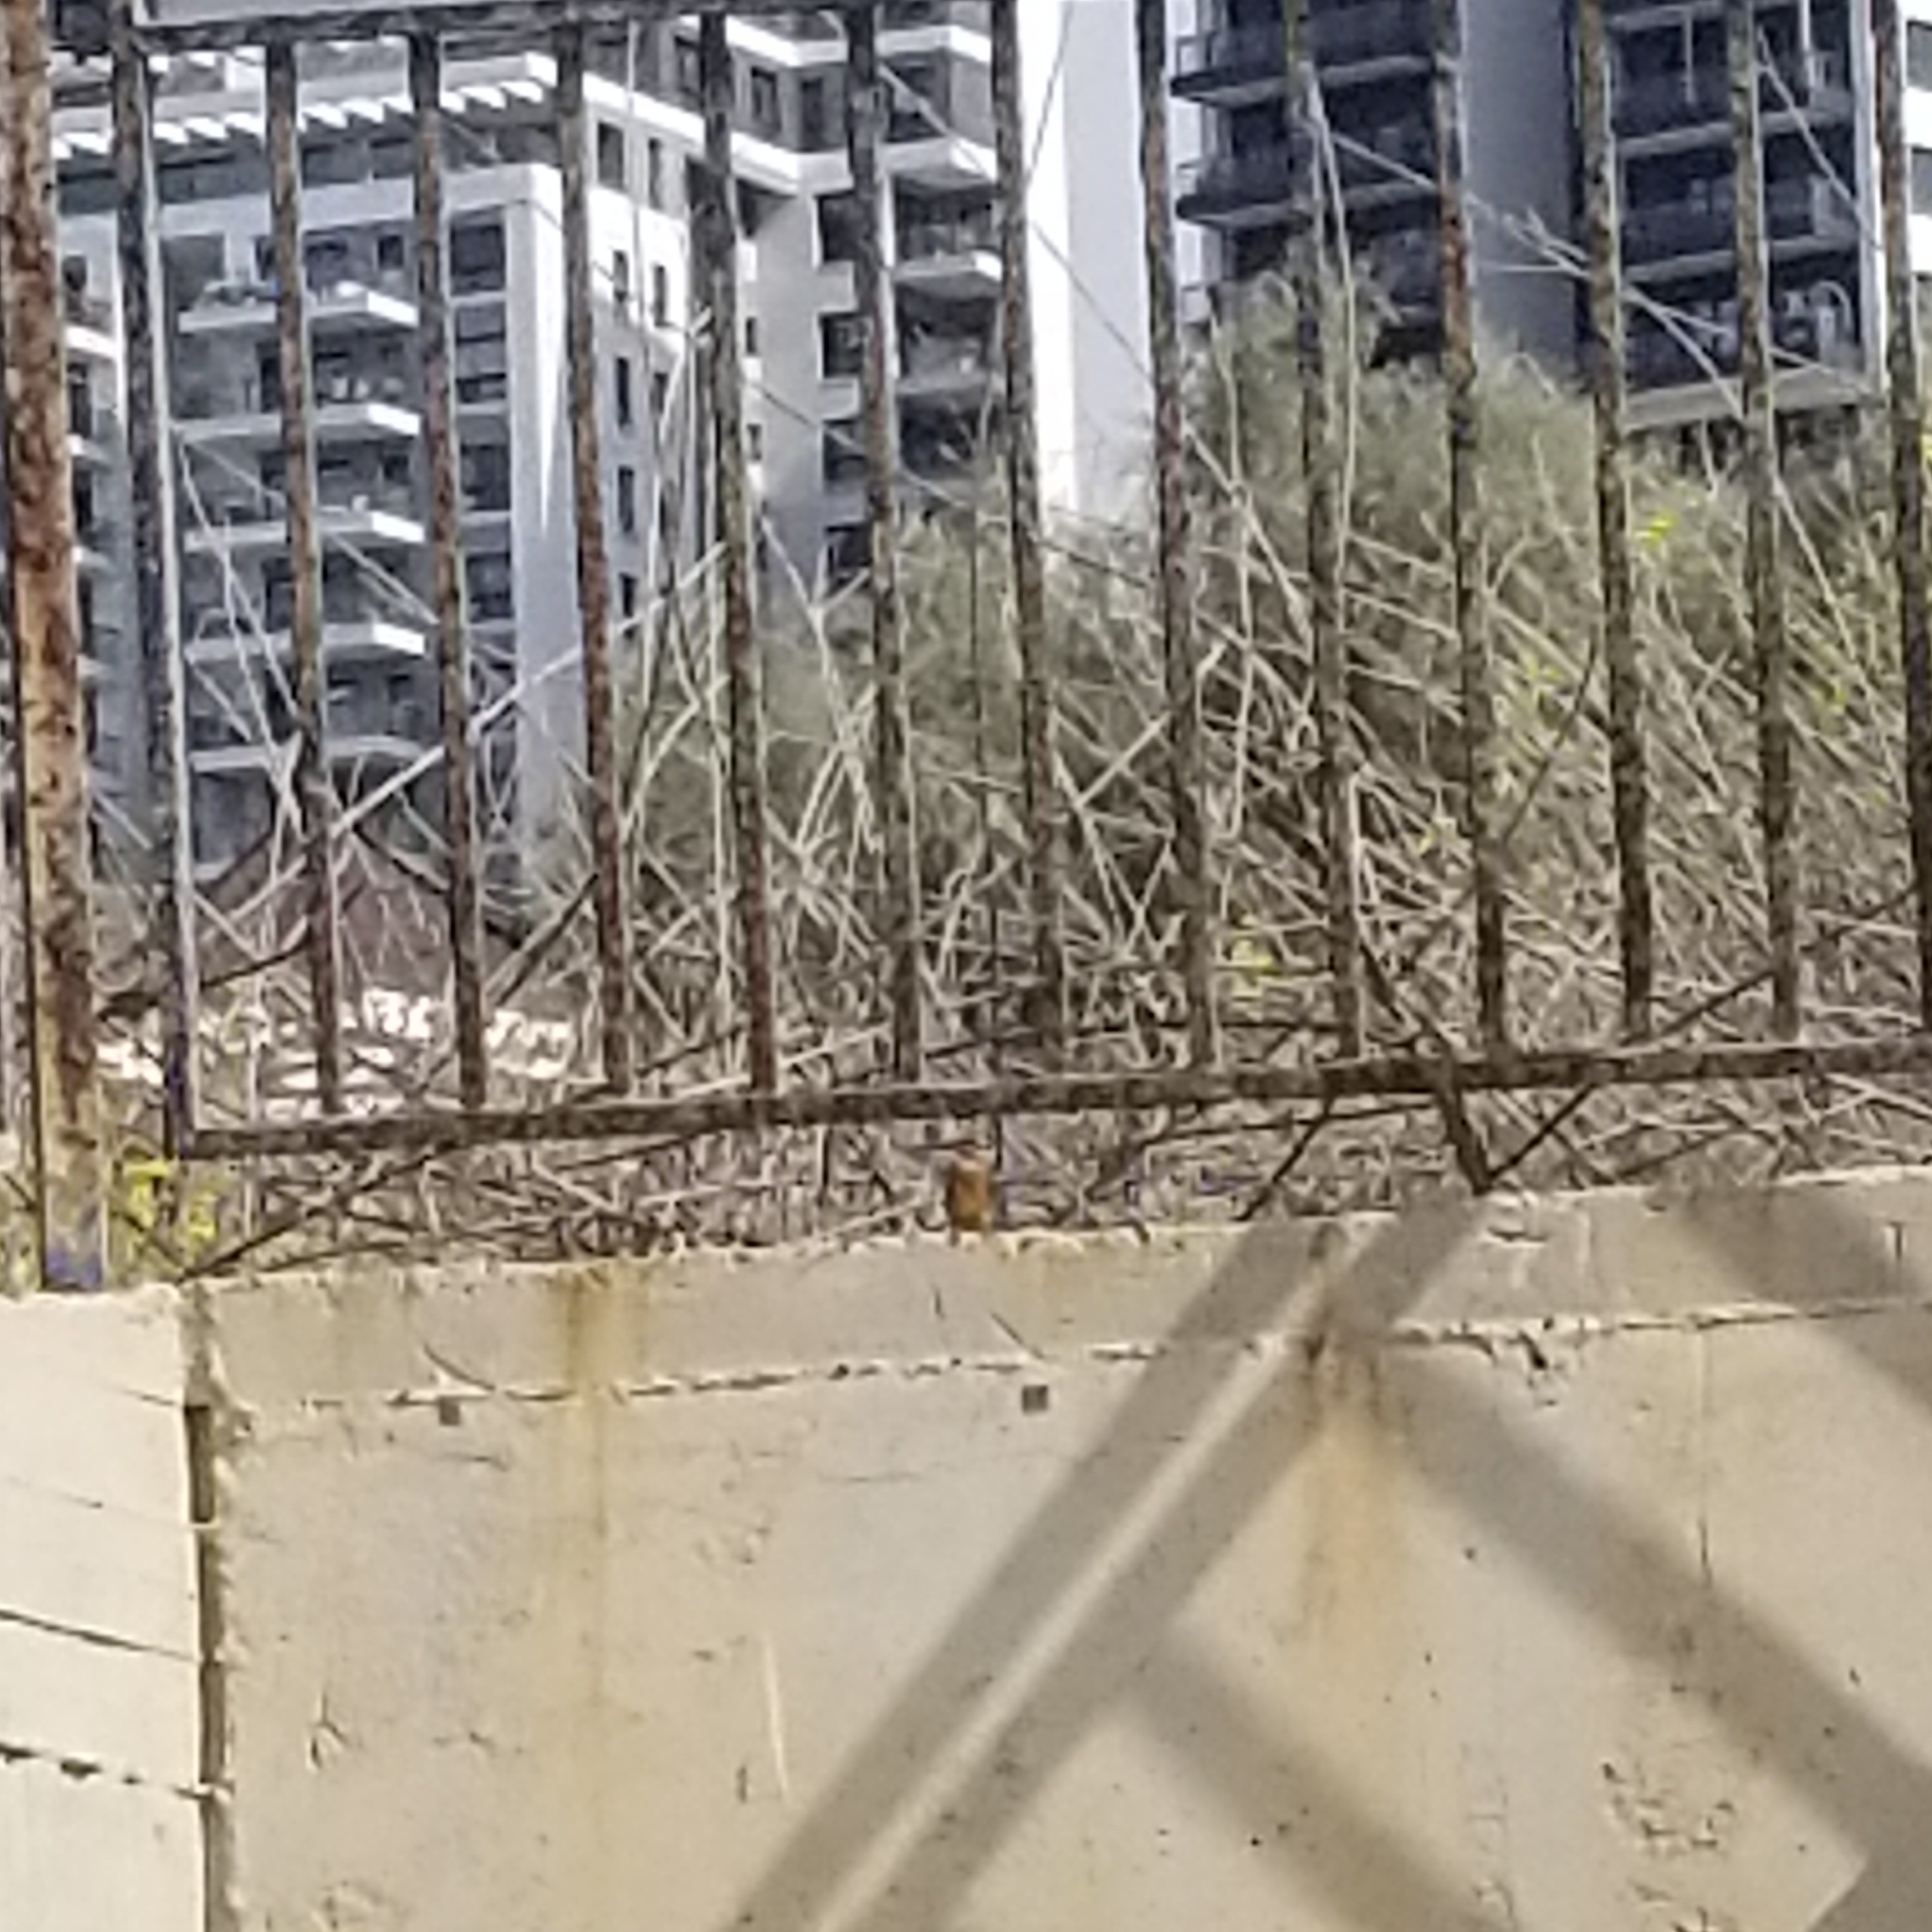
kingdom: Animalia
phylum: Chordata
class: Aves
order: Coraciiformes
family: Alcedinidae
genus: Alcedo
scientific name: Alcedo atthis
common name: Common kingfisher
